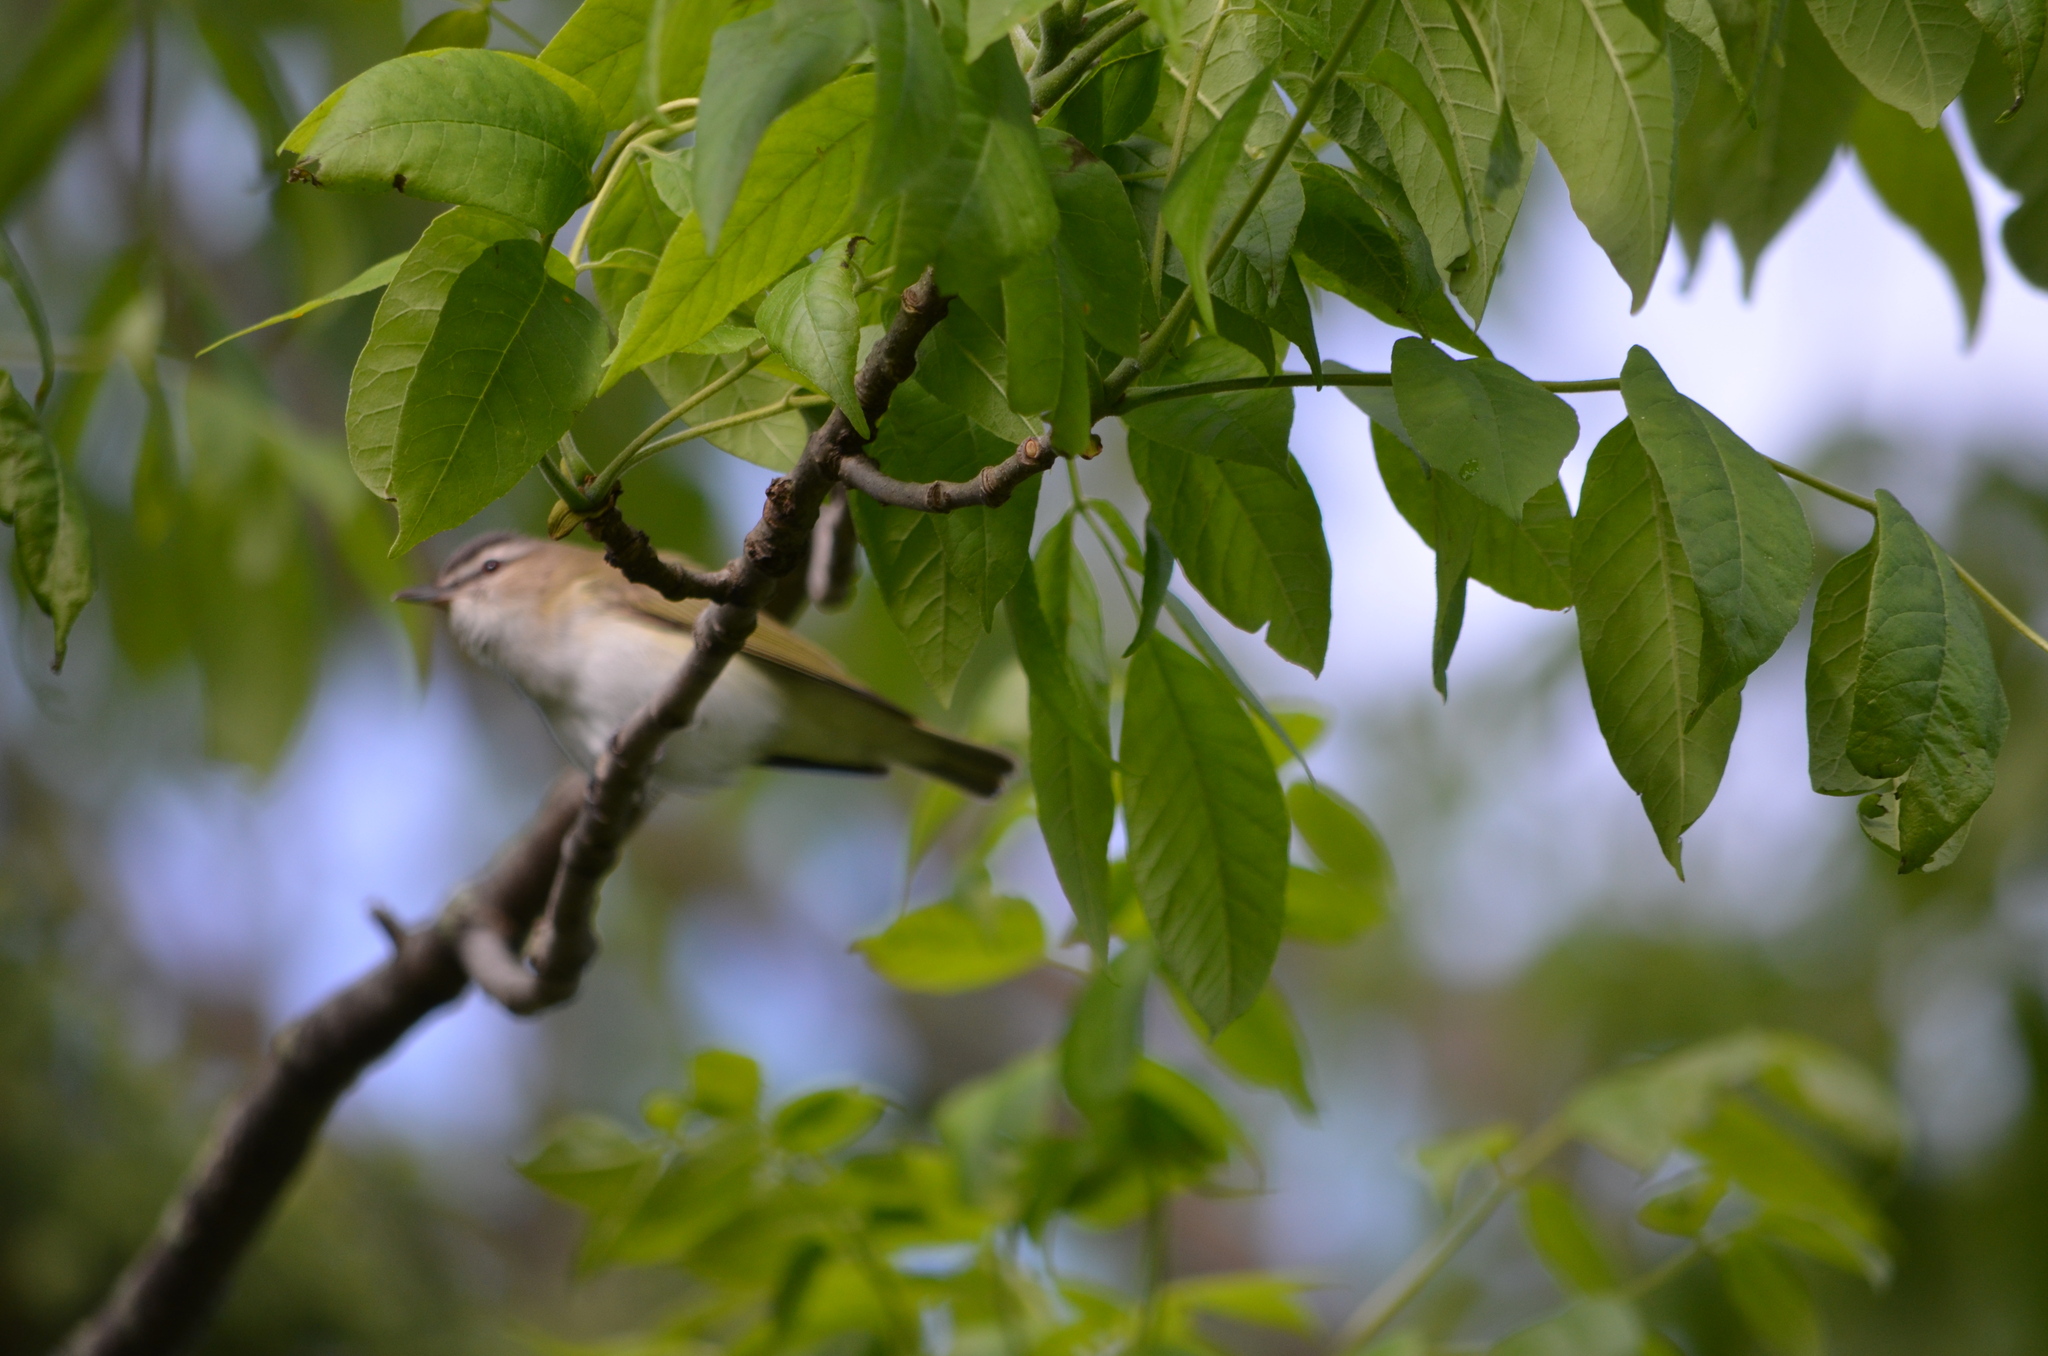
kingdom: Animalia
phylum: Chordata
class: Aves
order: Passeriformes
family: Vireonidae
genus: Vireo
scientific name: Vireo olivaceus
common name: Red-eyed vireo
